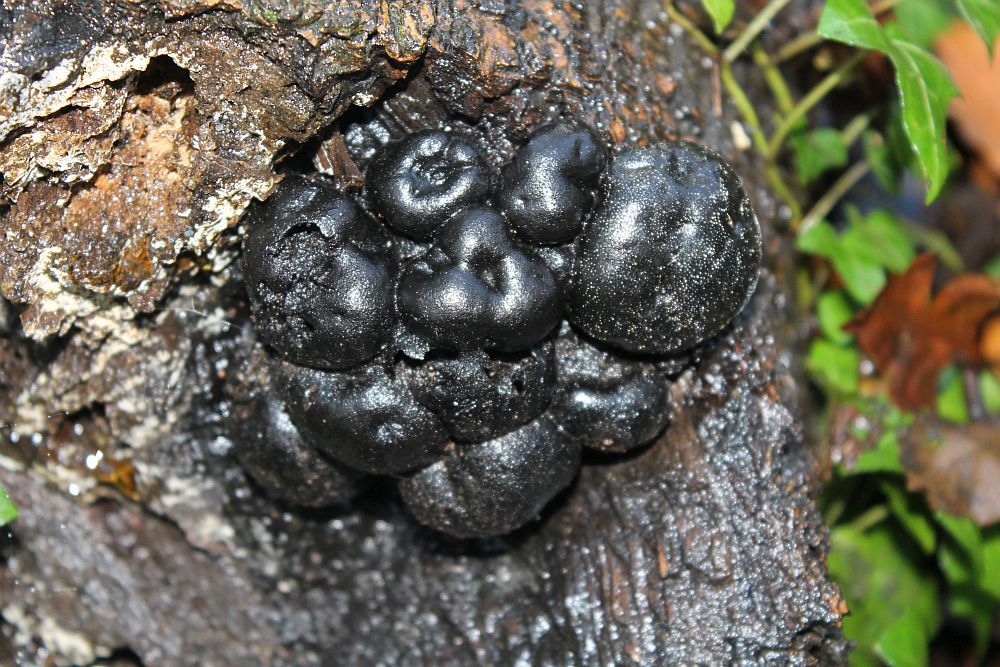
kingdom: Fungi
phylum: Ascomycota
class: Sordariomycetes
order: Xylariales
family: Hypoxylaceae
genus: Daldinia
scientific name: Daldinia concentrica
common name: Cramp balls
